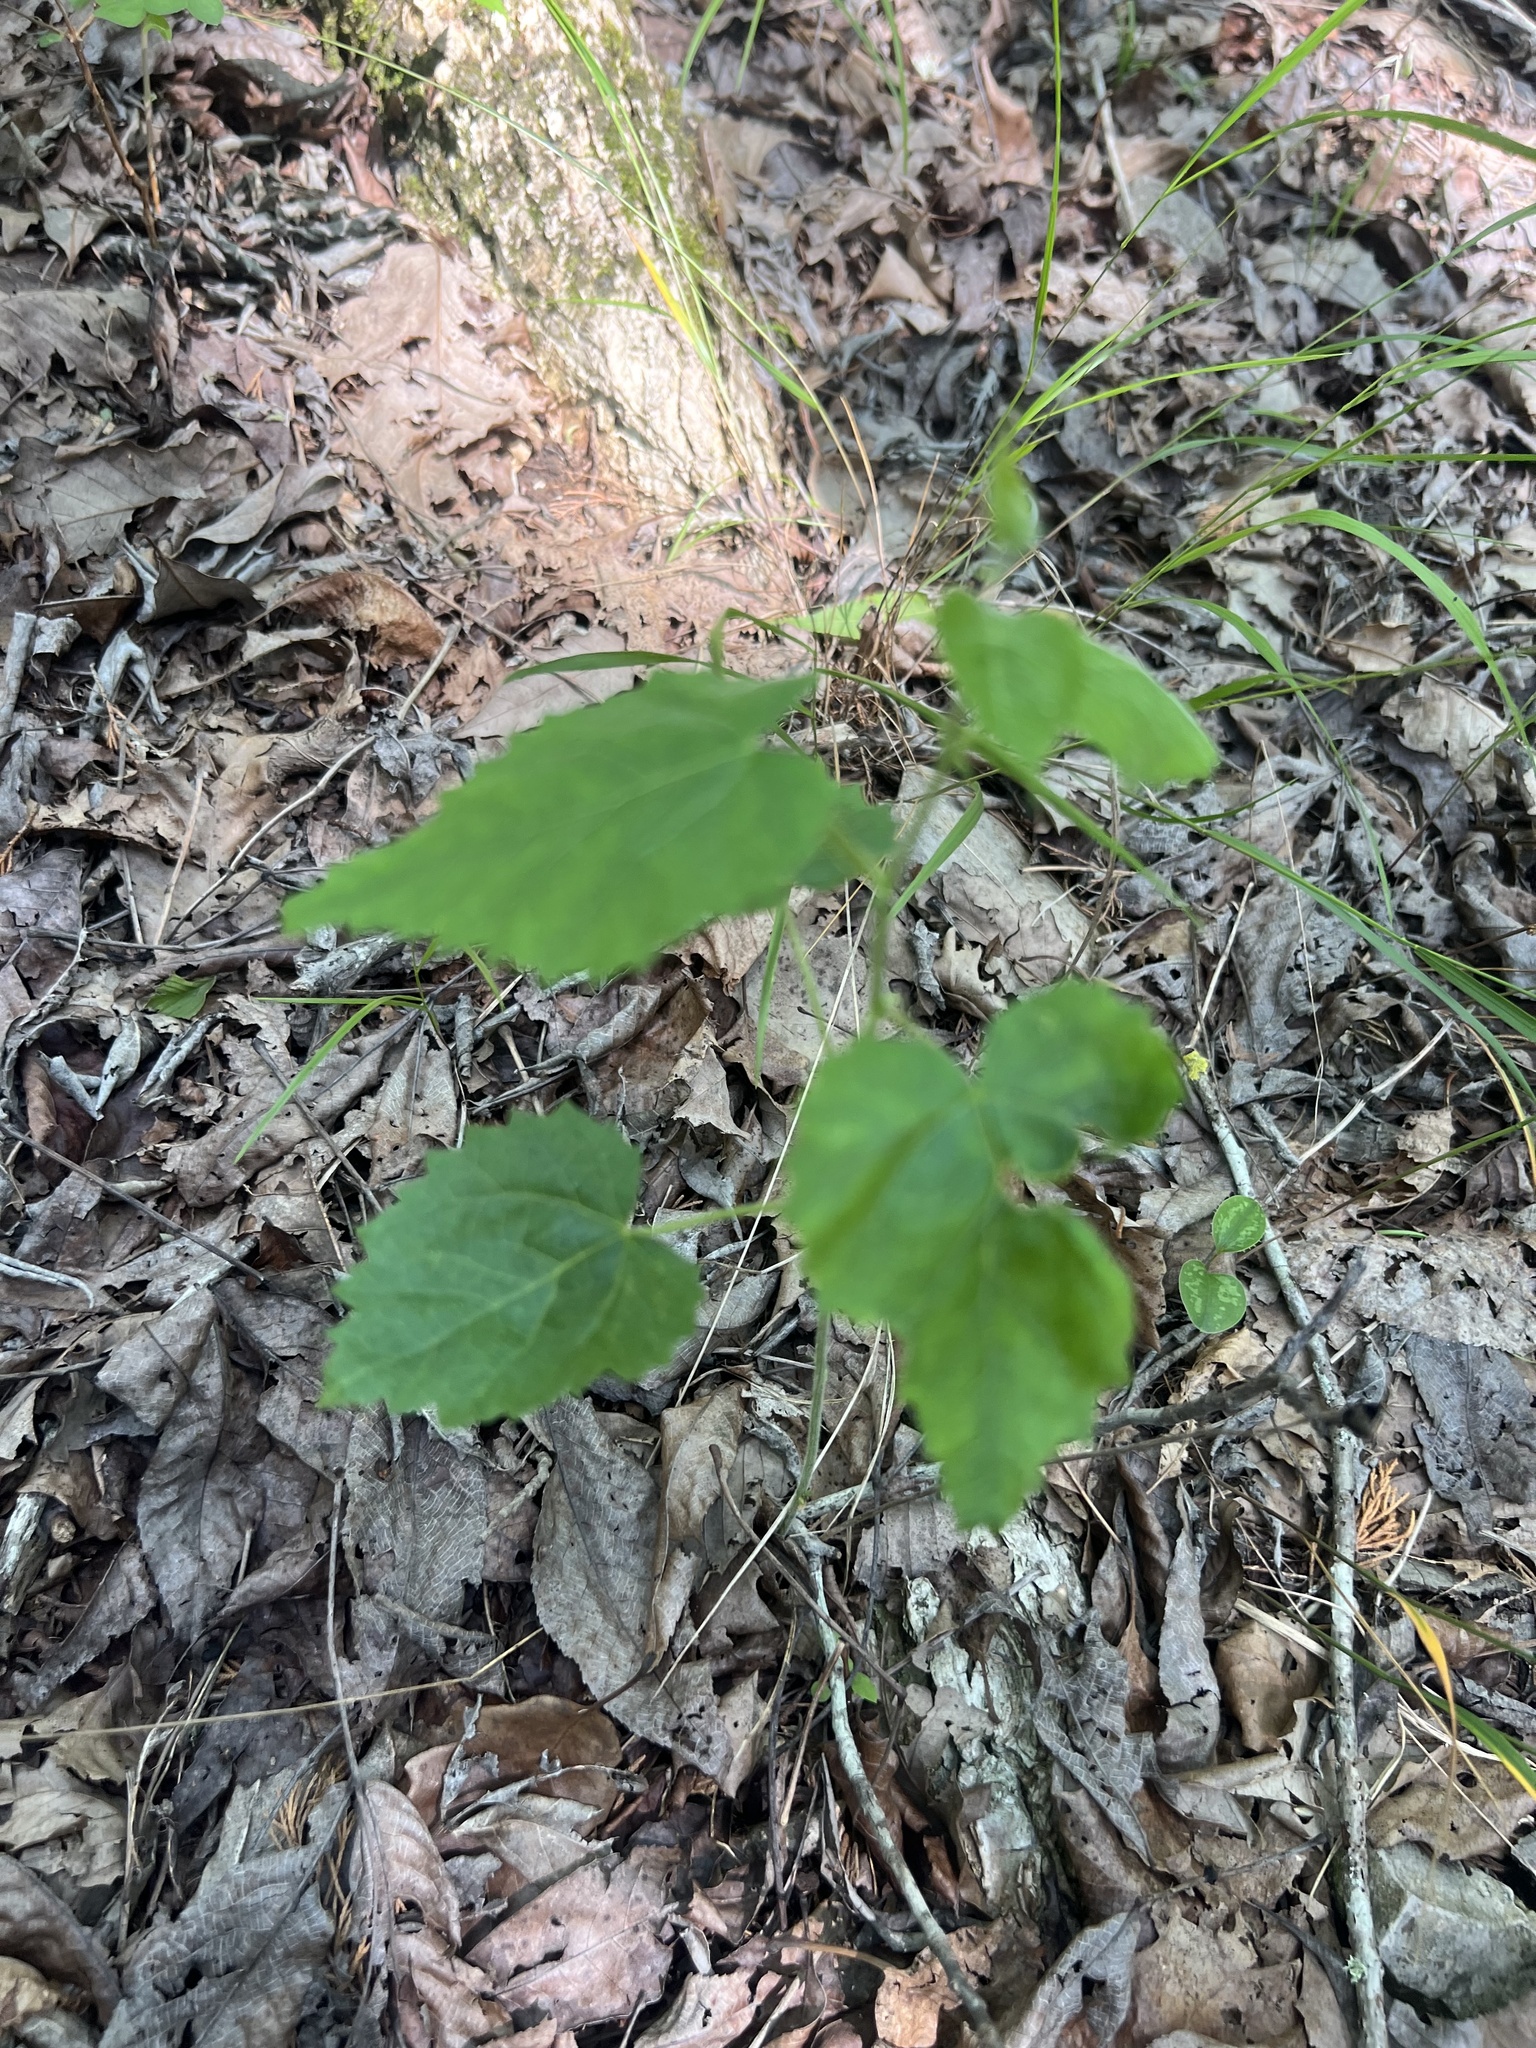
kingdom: Plantae
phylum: Tracheophyta
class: Magnoliopsida
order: Malpighiales
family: Euphorbiaceae
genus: Tragia
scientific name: Tragia cordata
